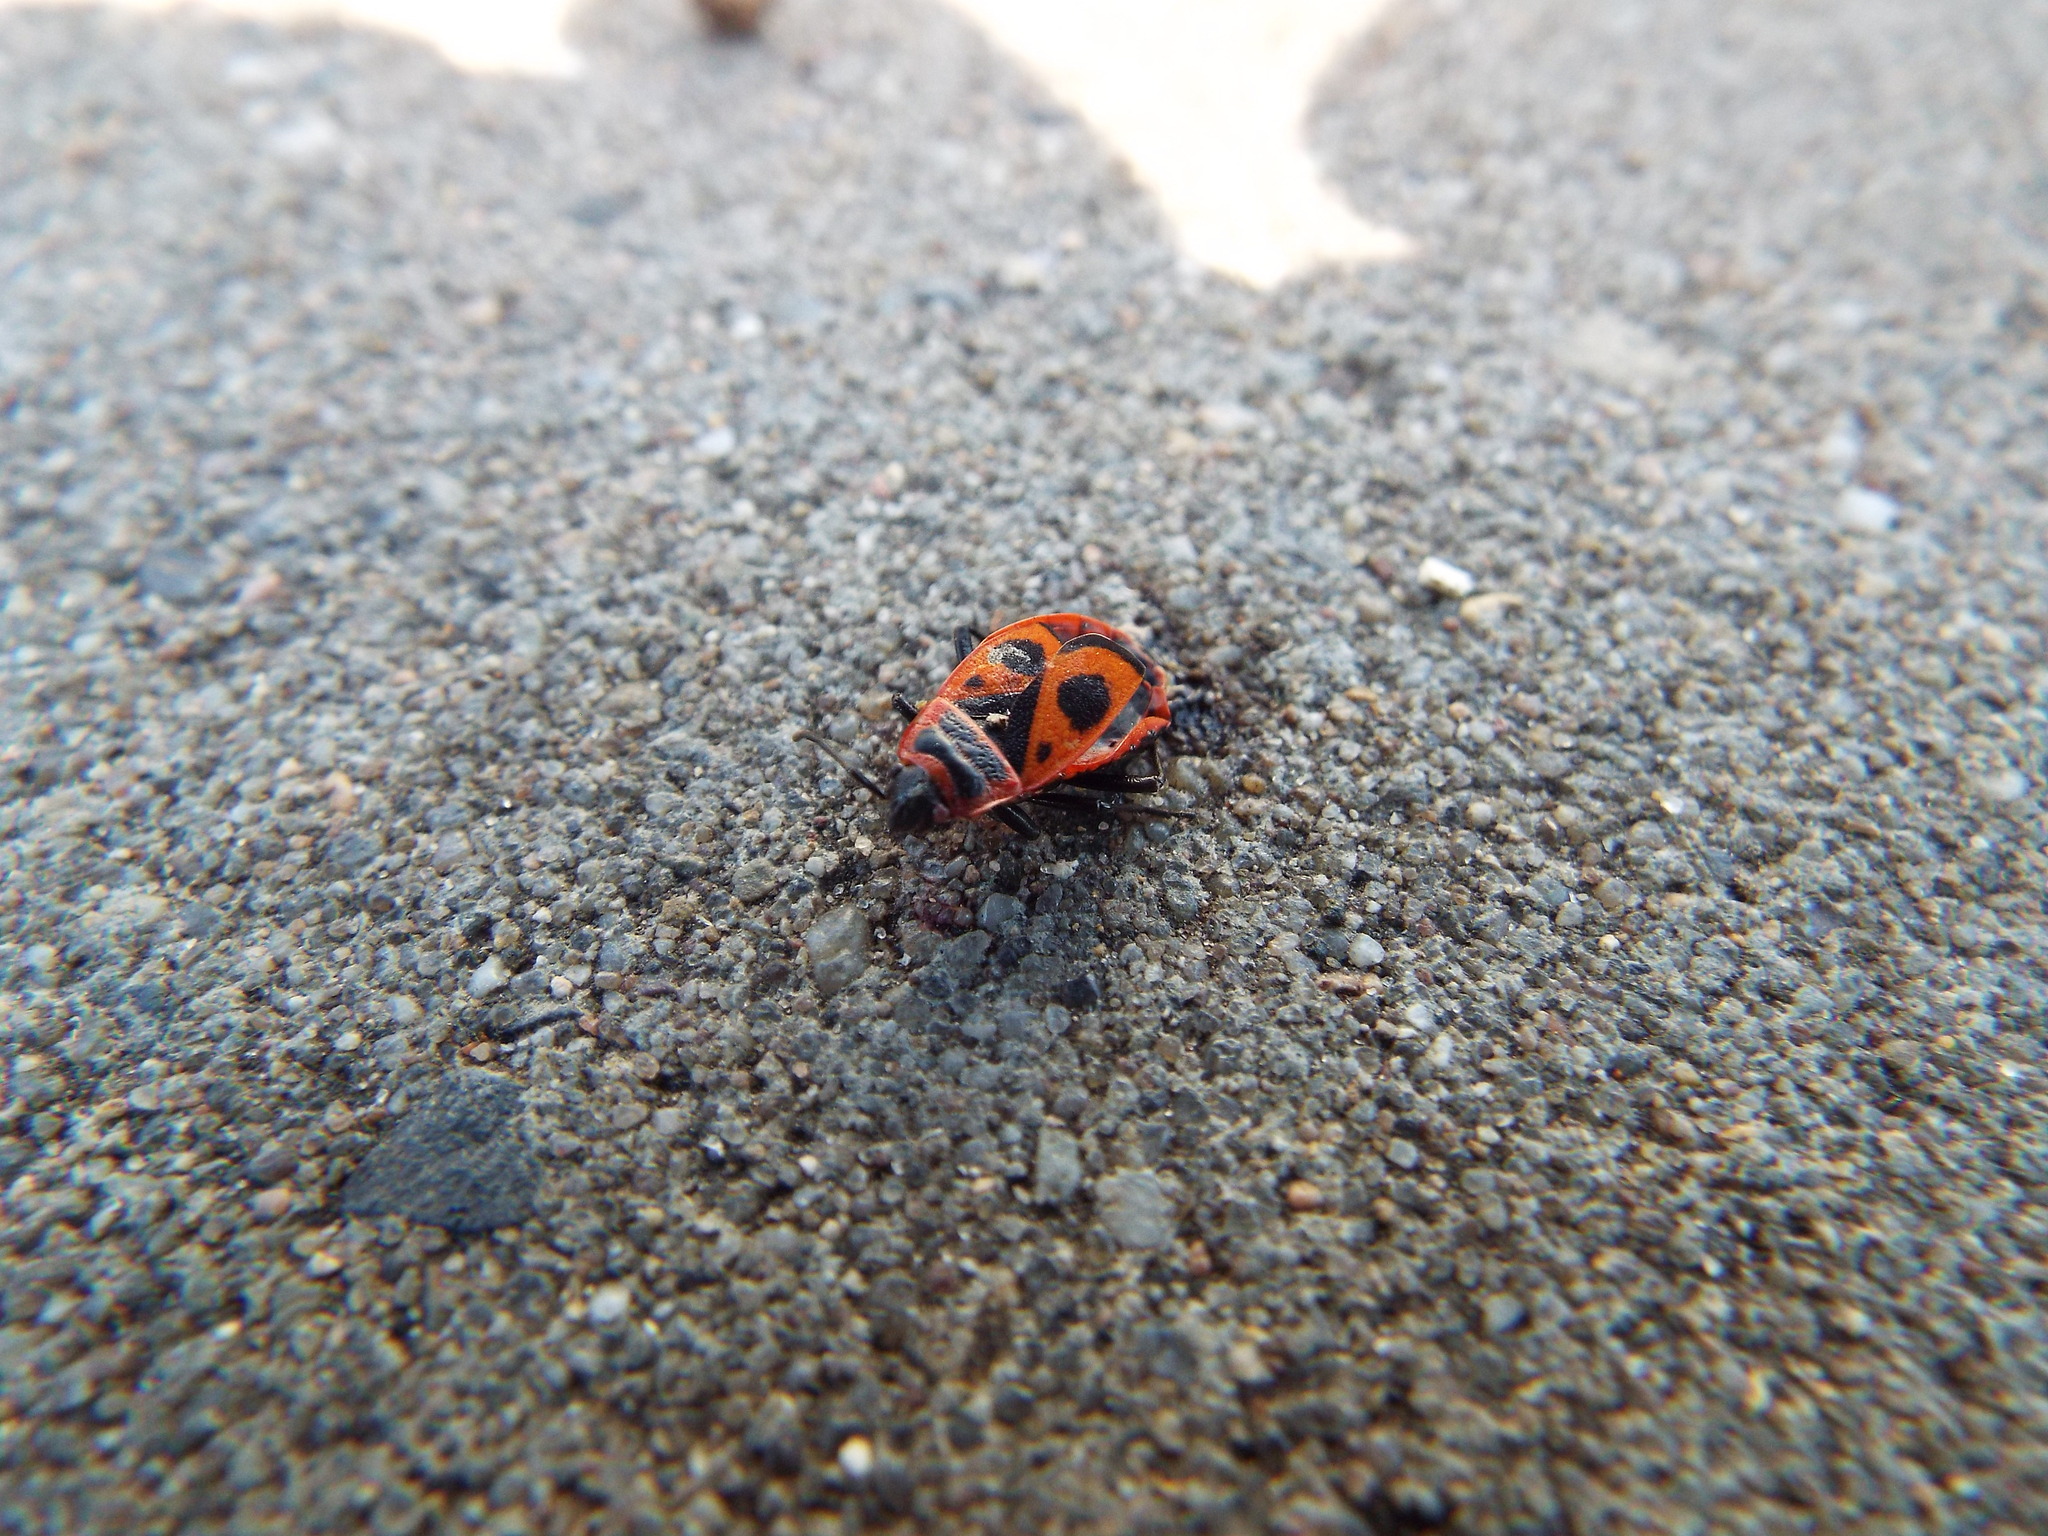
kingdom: Animalia
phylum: Arthropoda
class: Insecta
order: Hemiptera
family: Pyrrhocoridae
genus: Pyrrhocoris
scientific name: Pyrrhocoris apterus
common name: Firebug
